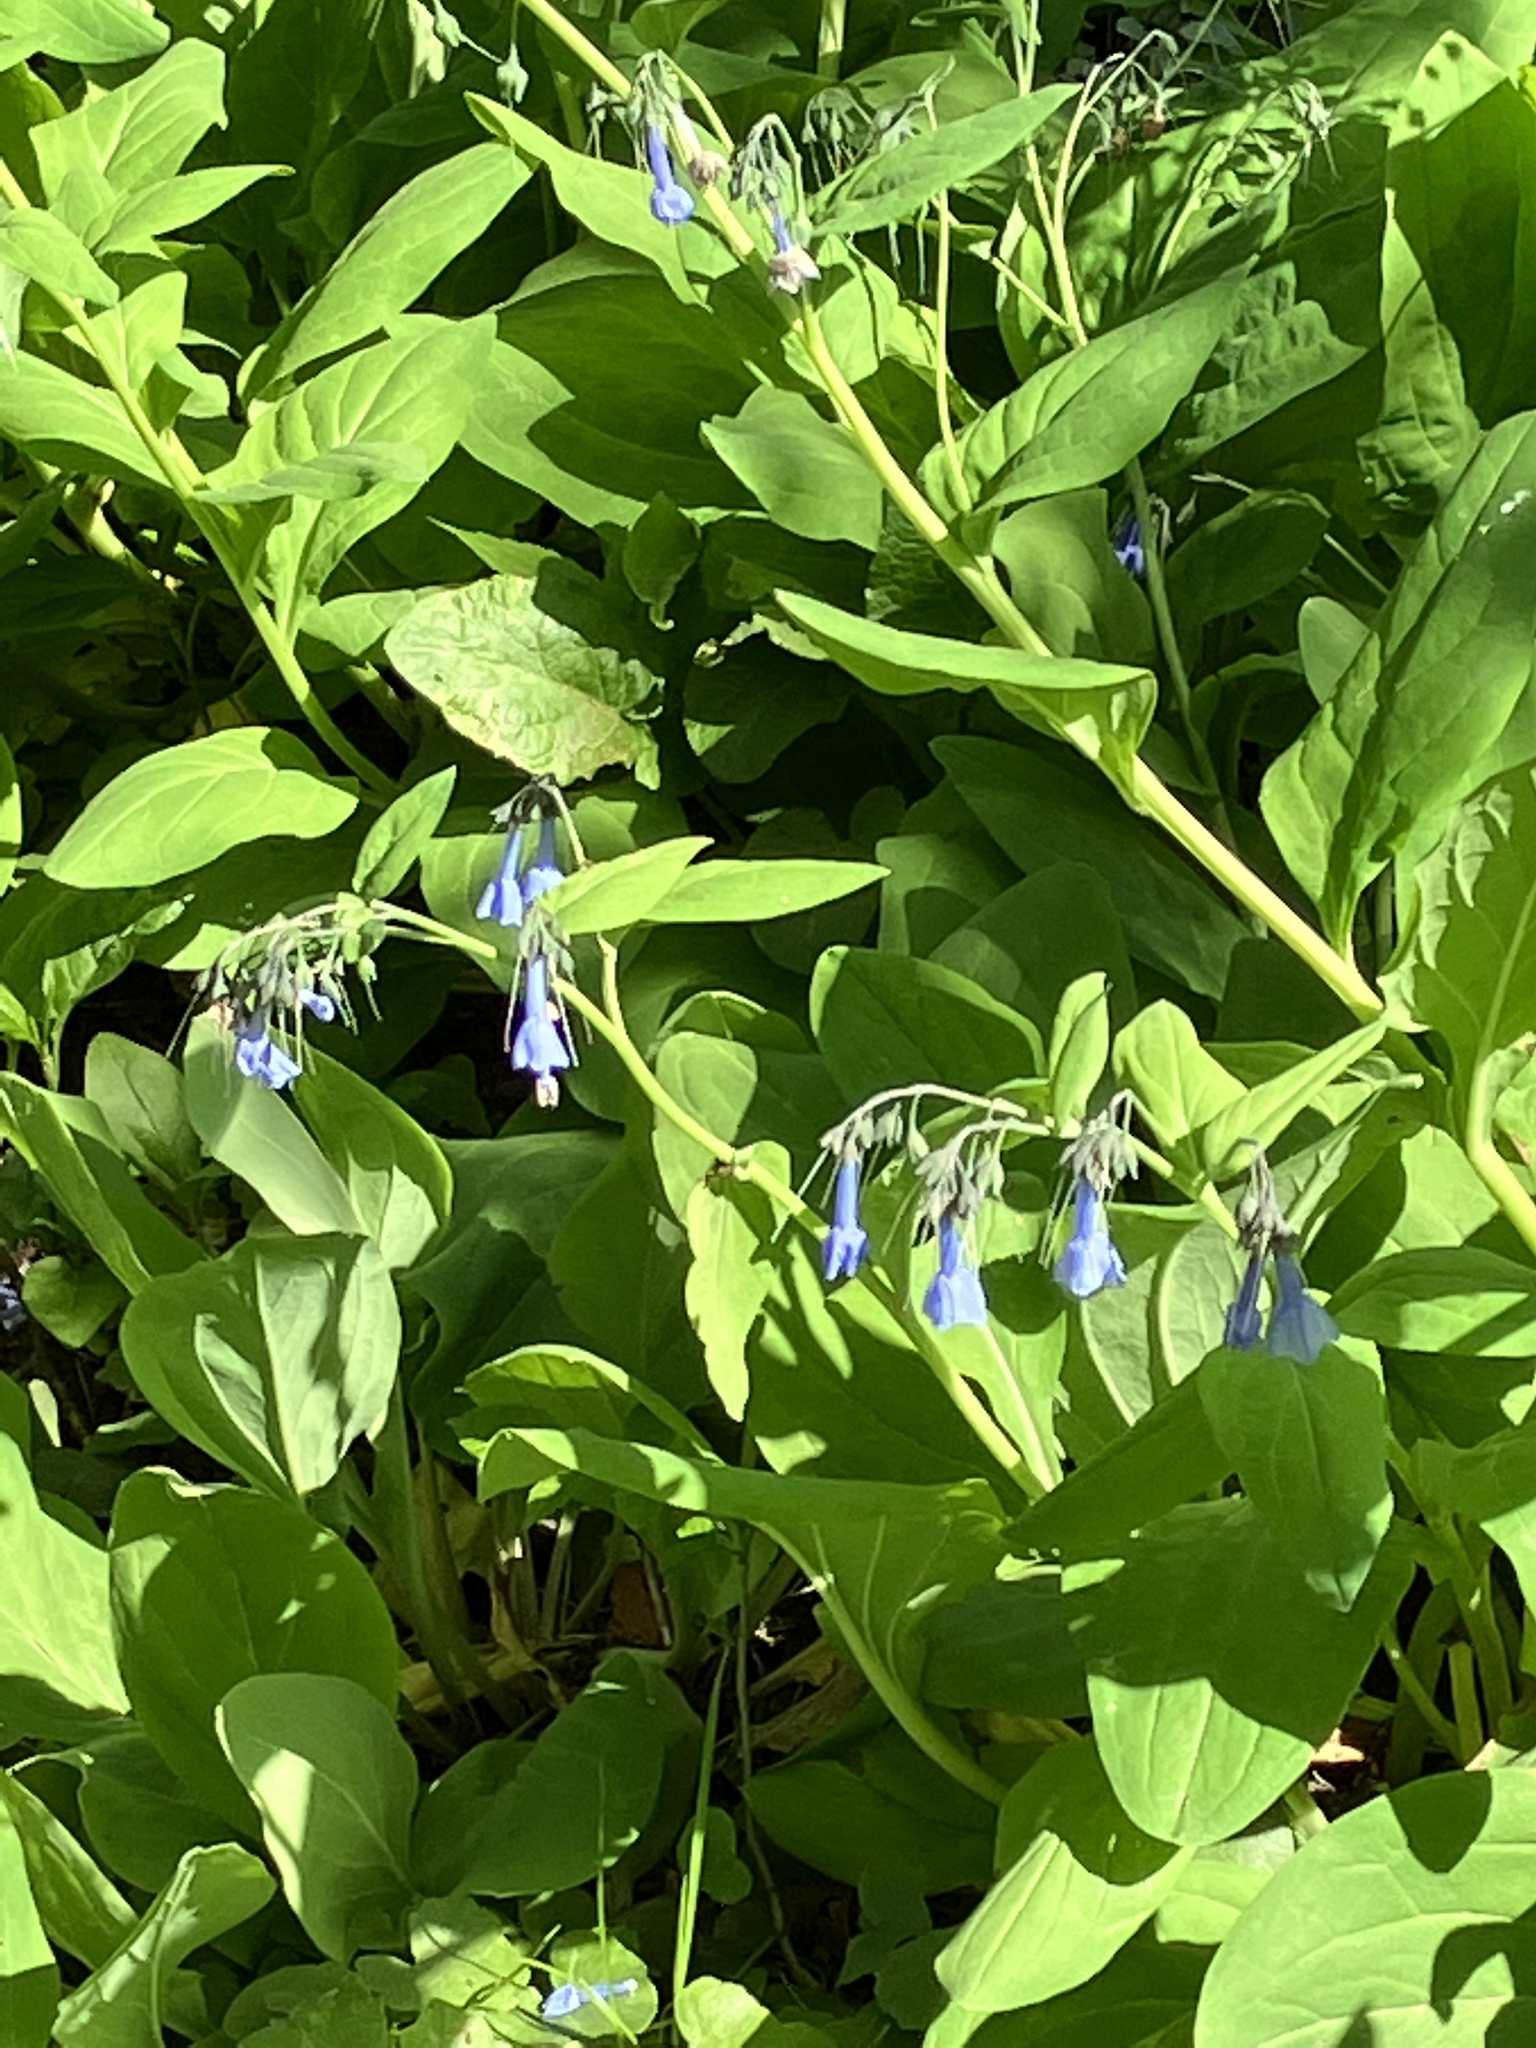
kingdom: Plantae
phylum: Tracheophyta
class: Magnoliopsida
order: Boraginales
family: Boraginaceae
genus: Mertensia
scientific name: Mertensia virginica
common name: Virginia bluebells
